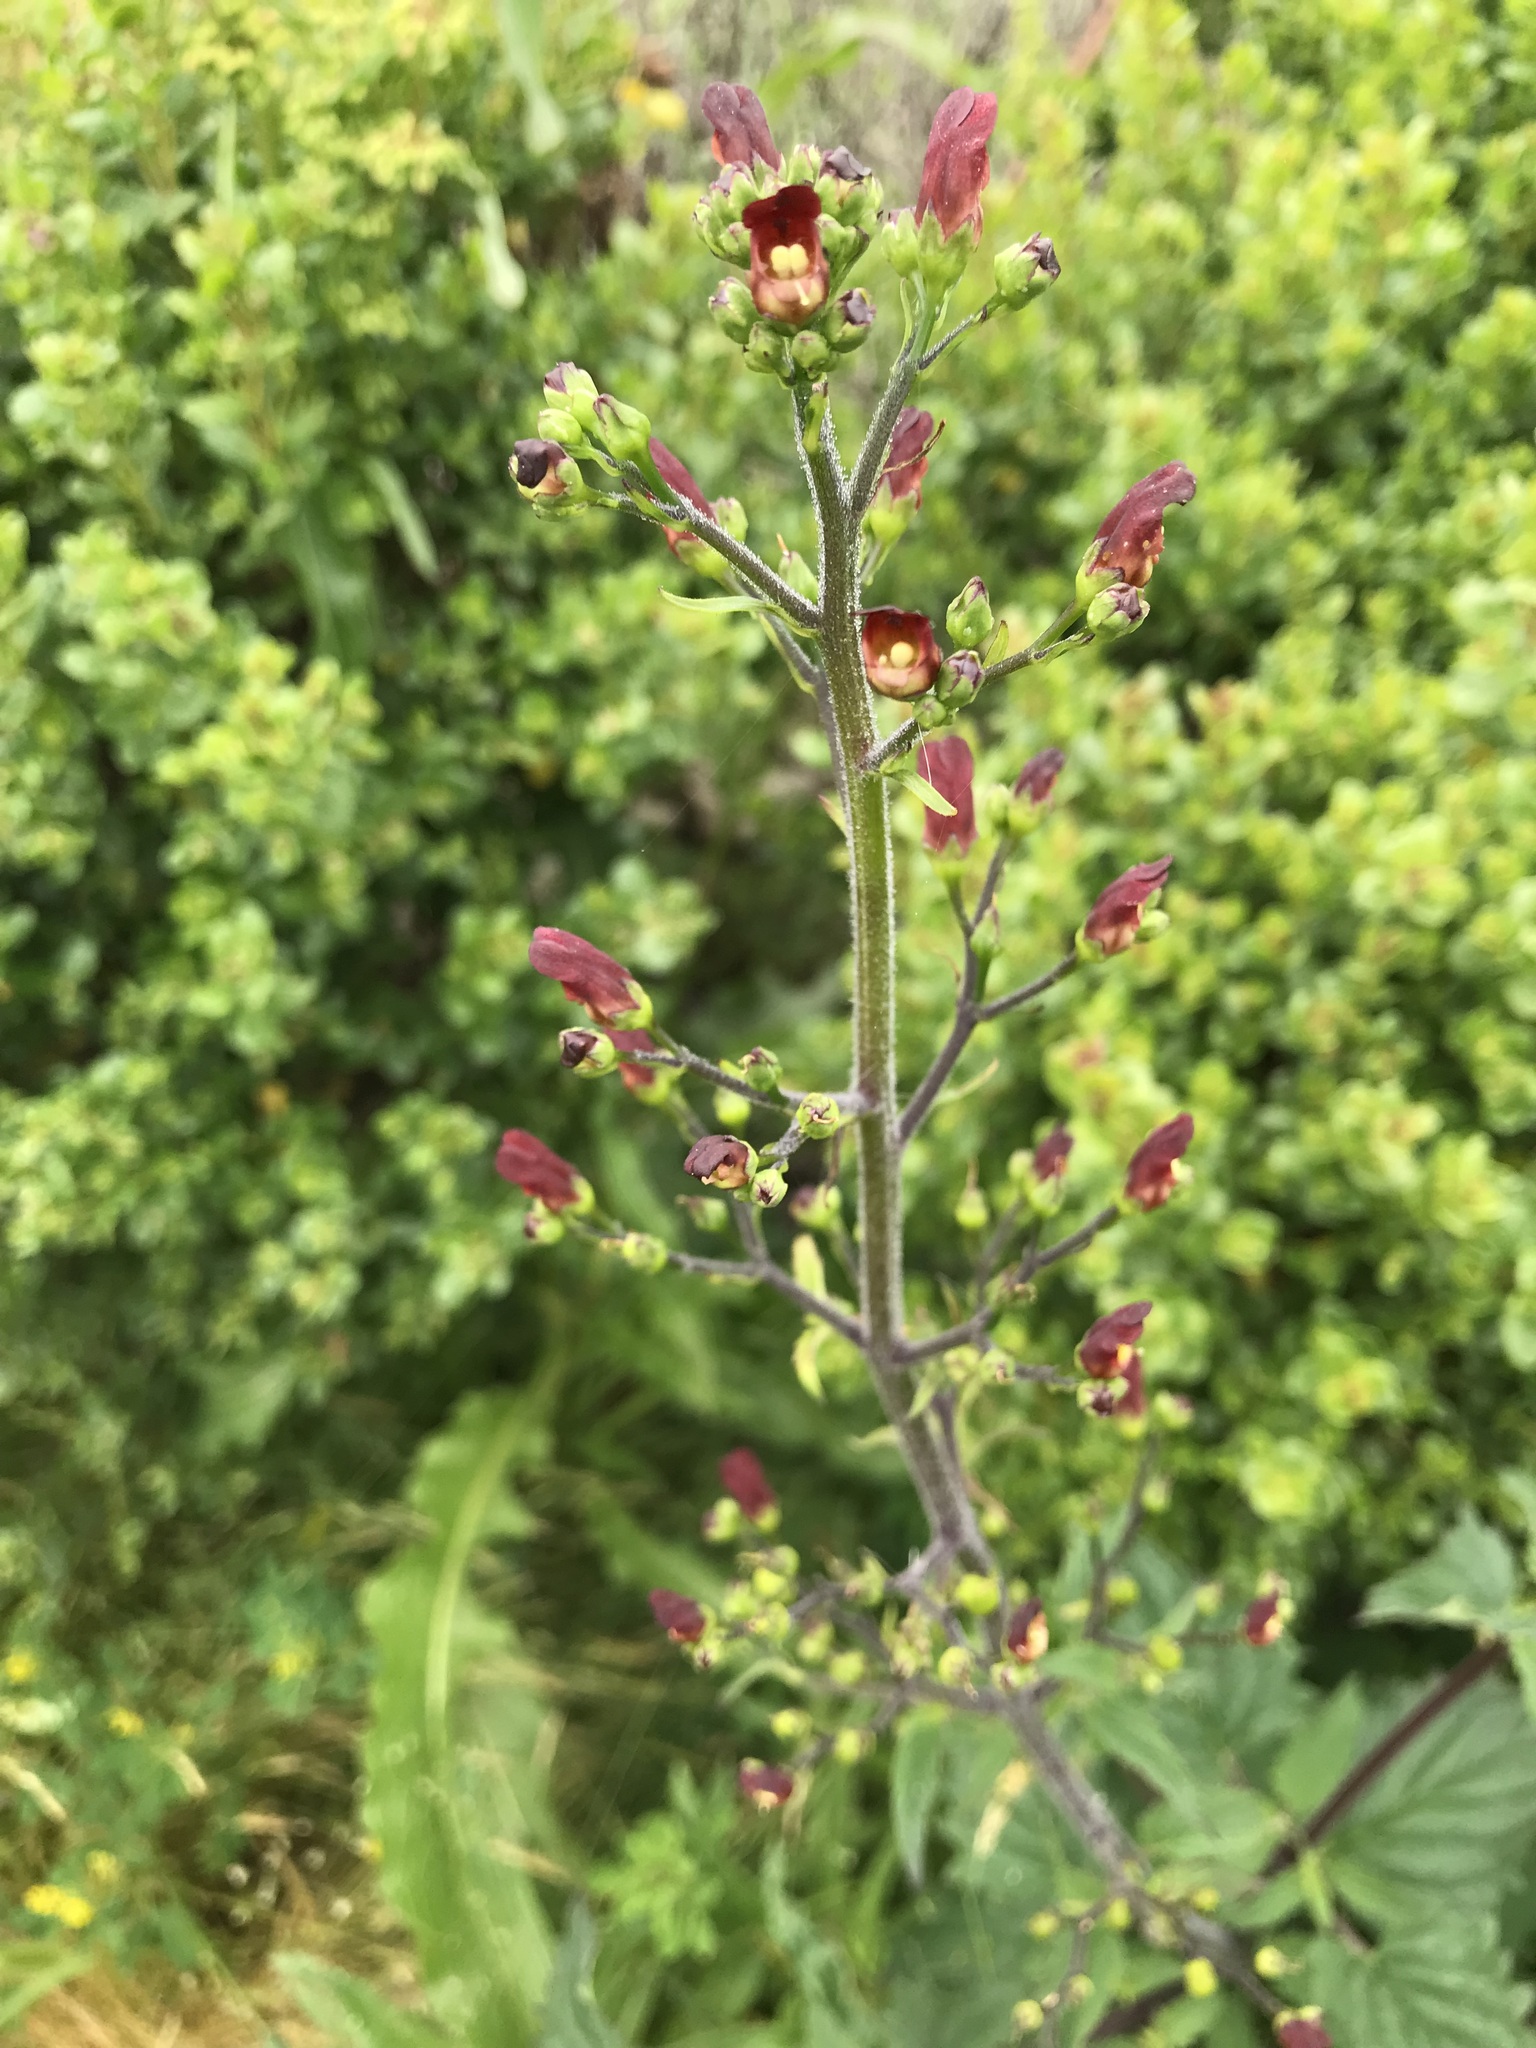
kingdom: Plantae
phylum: Tracheophyta
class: Magnoliopsida
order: Lamiales
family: Scrophulariaceae
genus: Scrophularia
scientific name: Scrophularia californica
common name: California figwort
